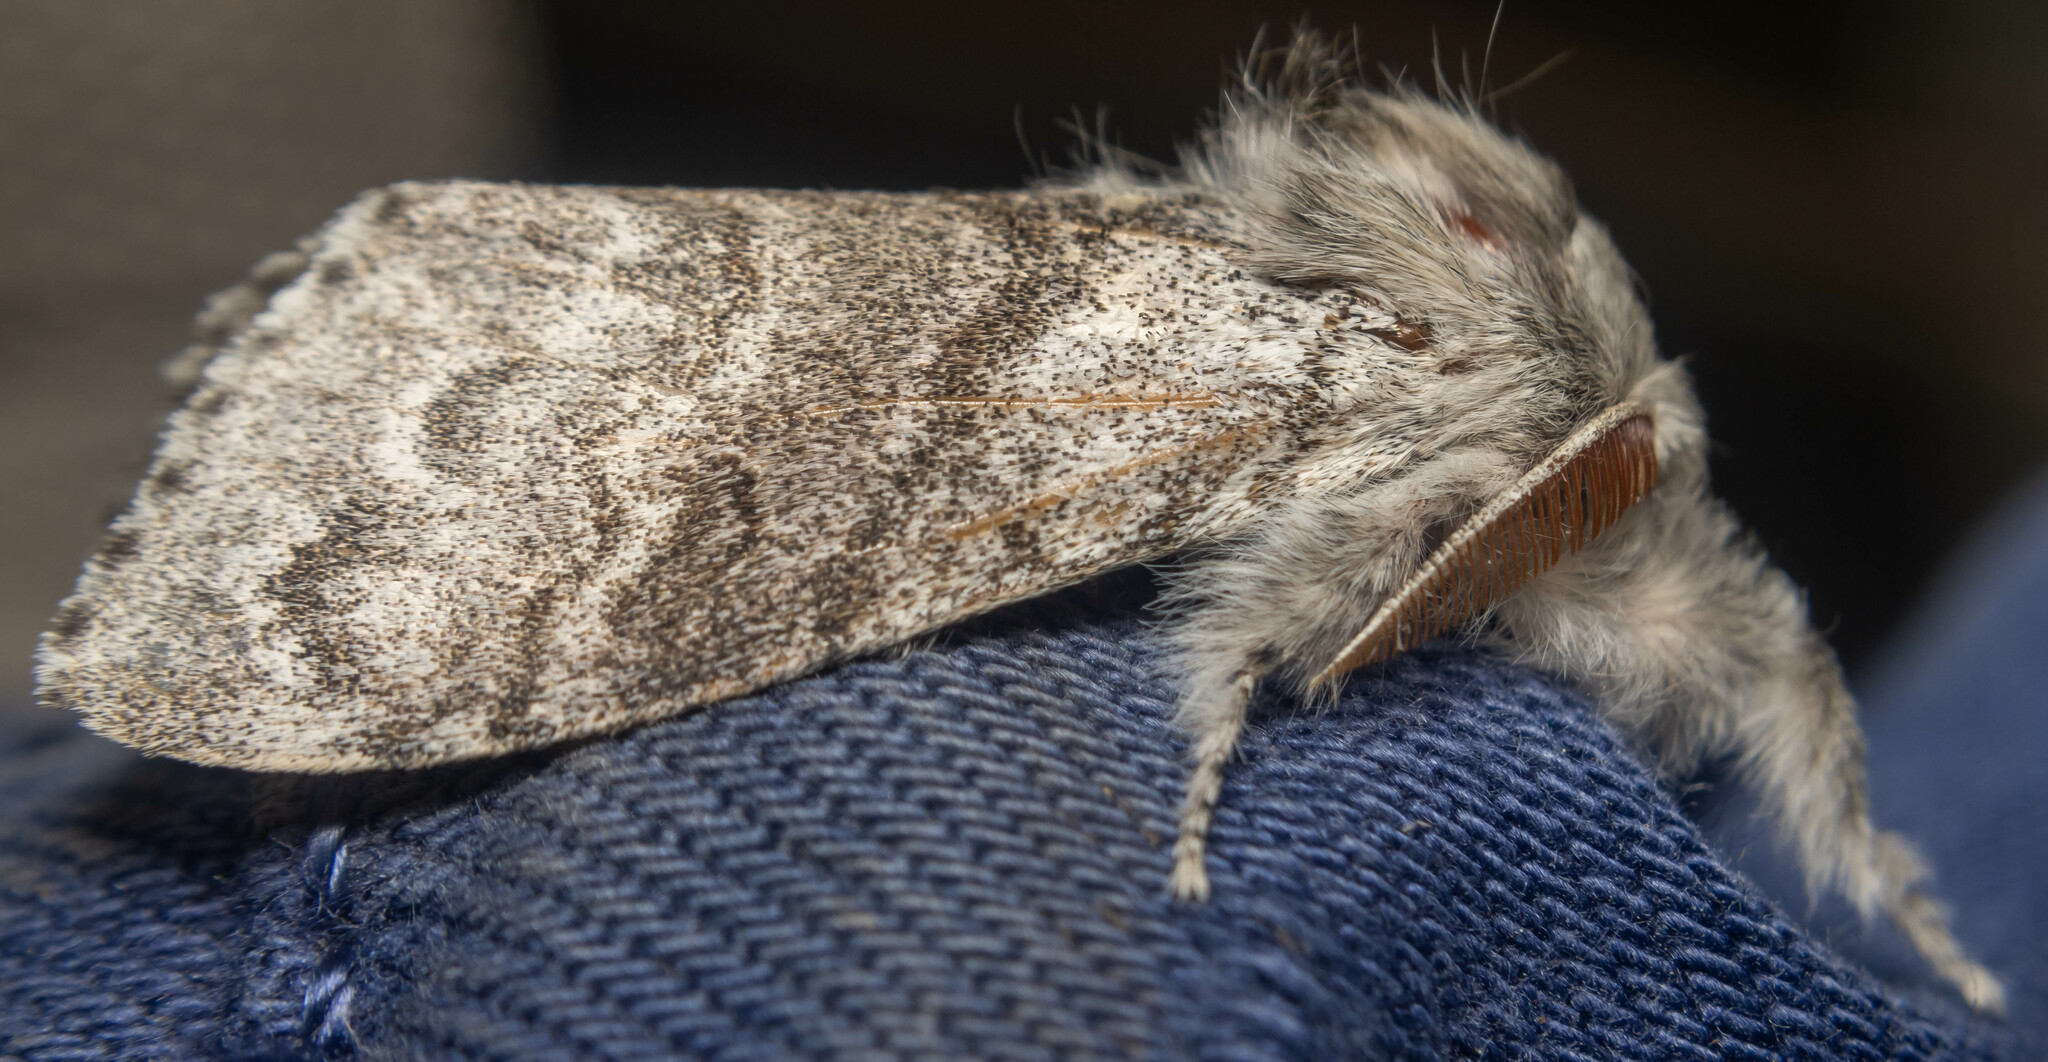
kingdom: Animalia
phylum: Arthropoda
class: Insecta
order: Lepidoptera
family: Erebidae
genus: Calliteara
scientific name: Calliteara pudibunda
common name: Pale tussock
